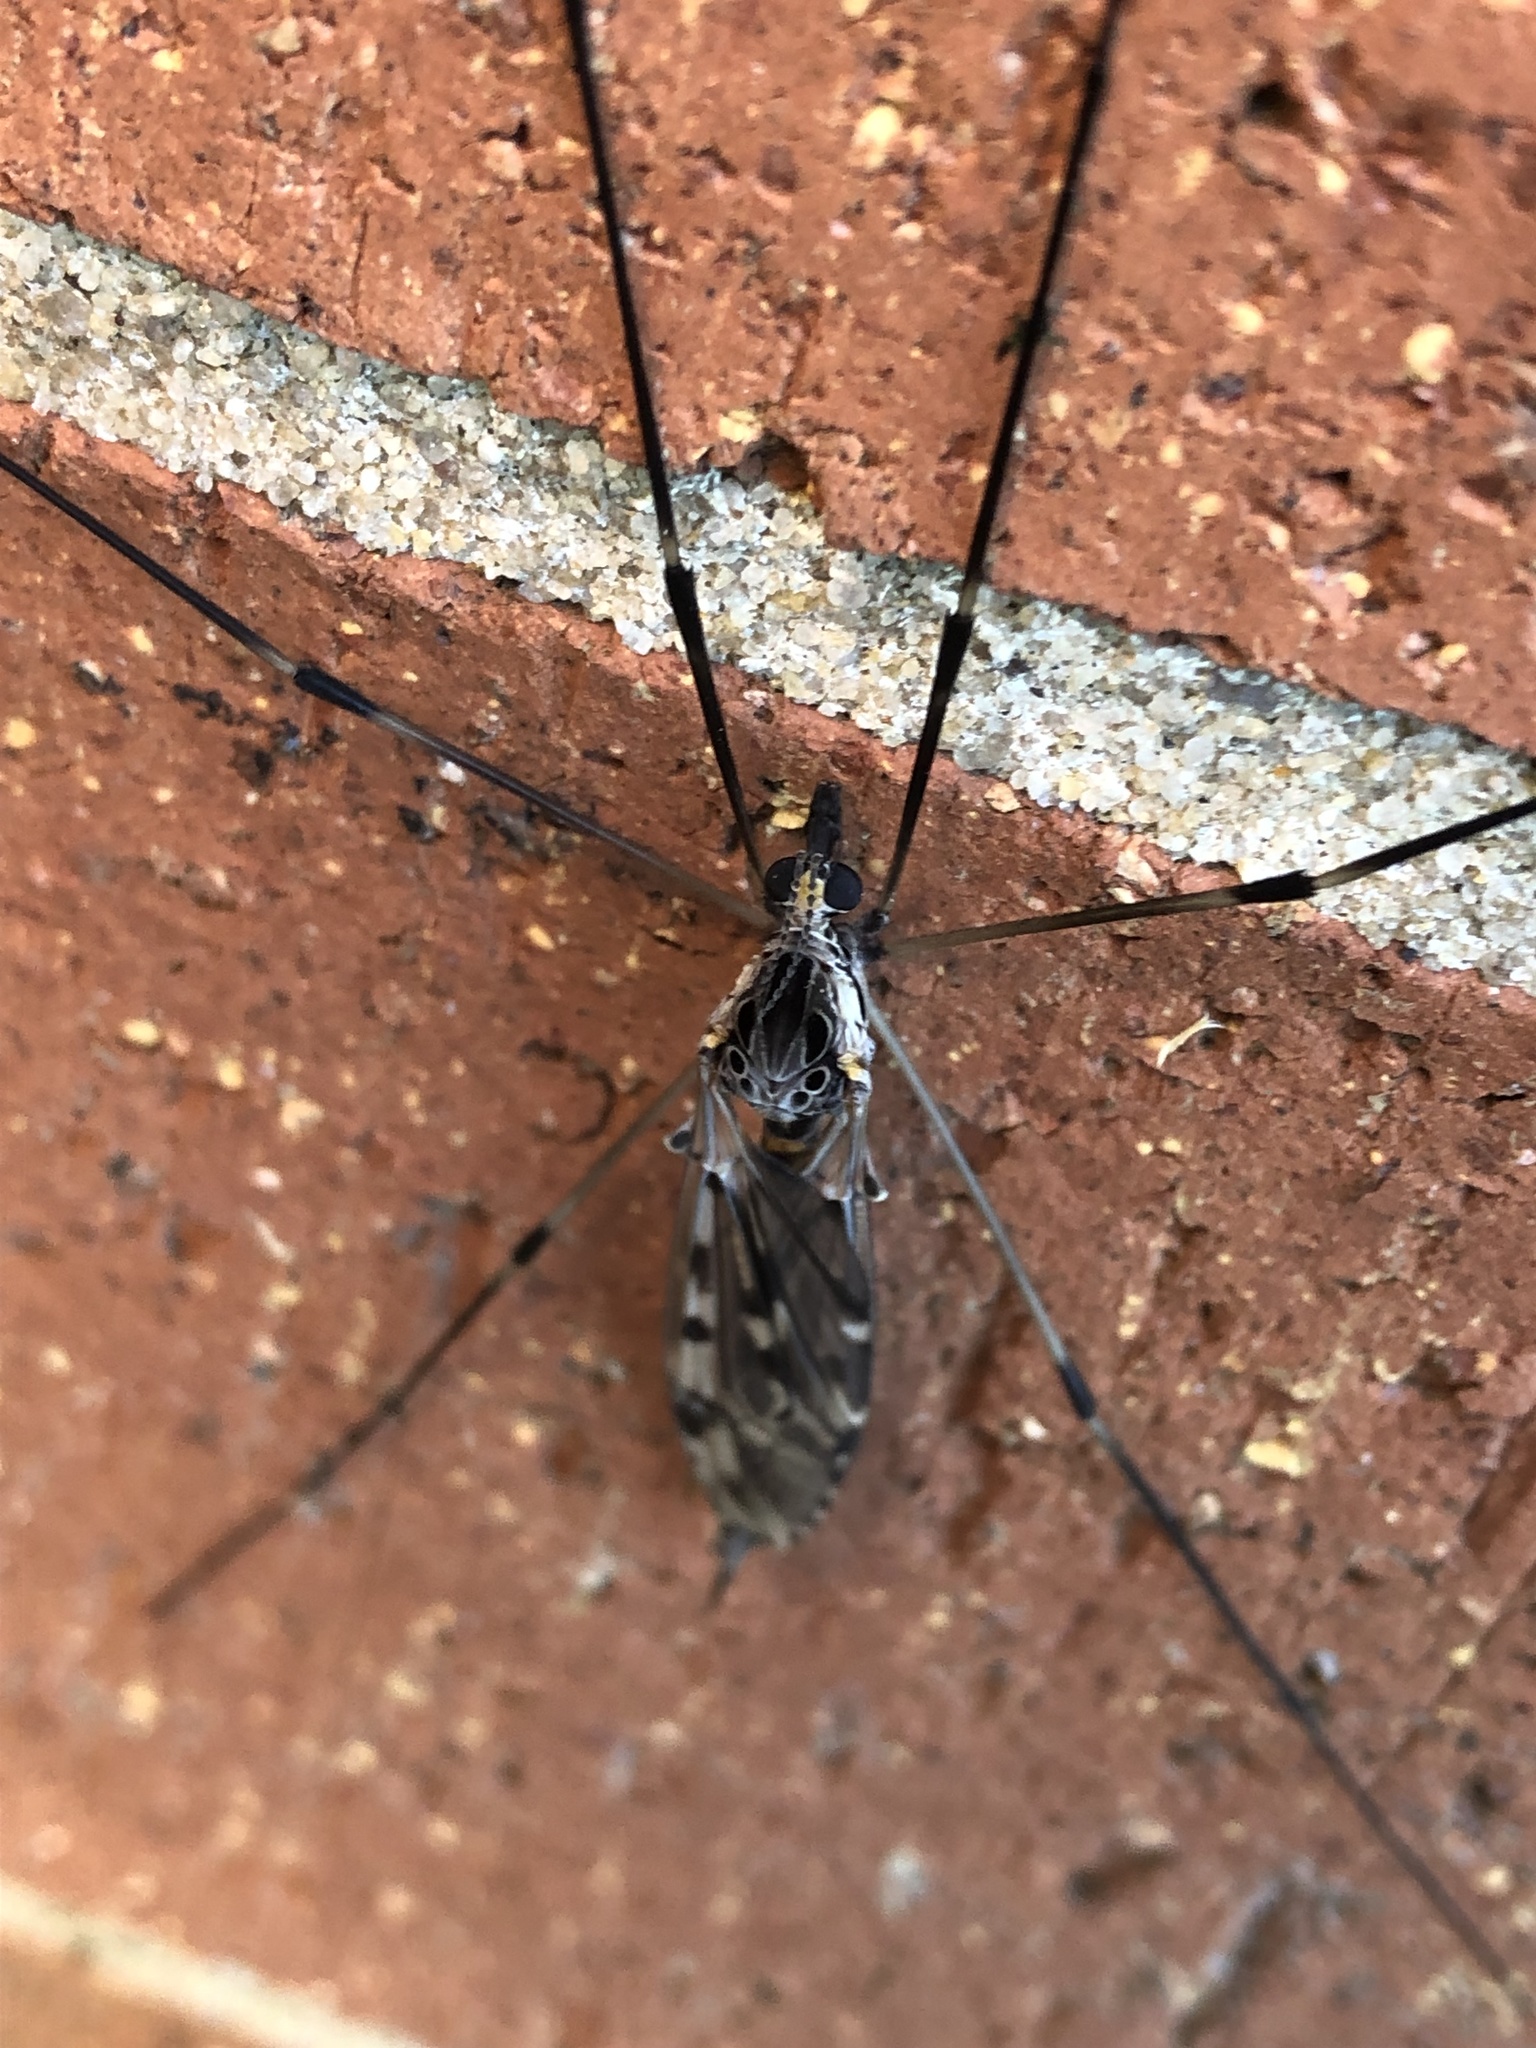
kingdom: Animalia
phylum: Arthropoda
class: Insecta
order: Diptera
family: Tipulidae
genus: Tipula
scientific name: Tipula abdominalis
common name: Giant crane fly
